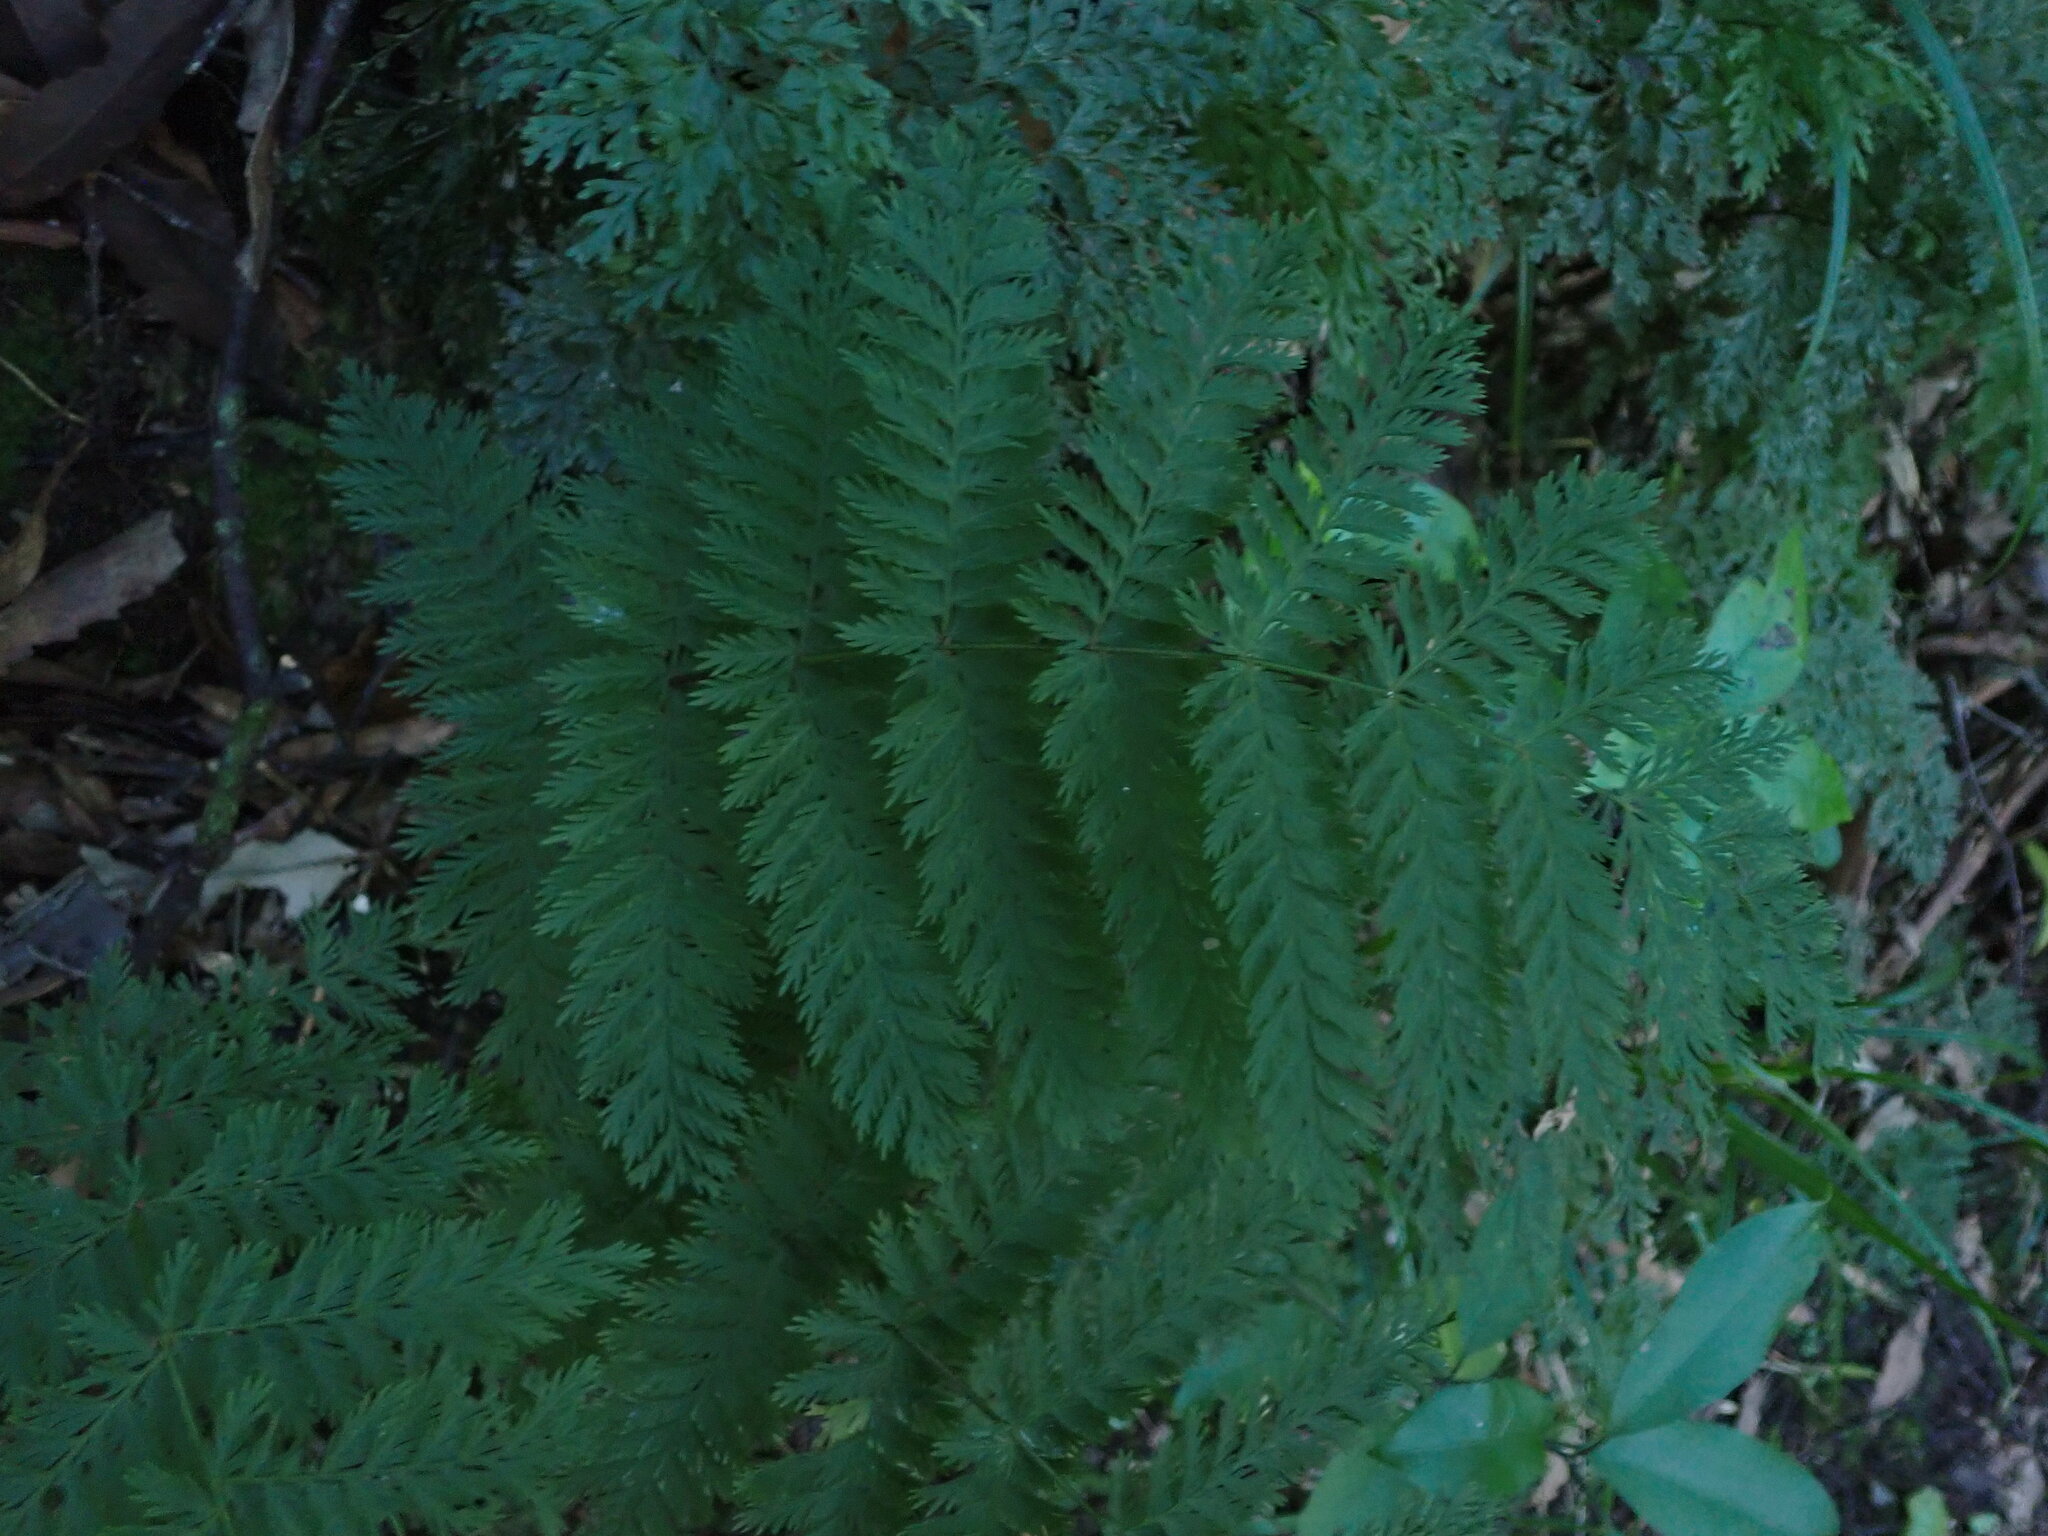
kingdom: Plantae
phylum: Tracheophyta
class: Polypodiopsida
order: Osmundales
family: Osmundaceae
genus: Leptopteris
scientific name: Leptopteris hymenophylloides
